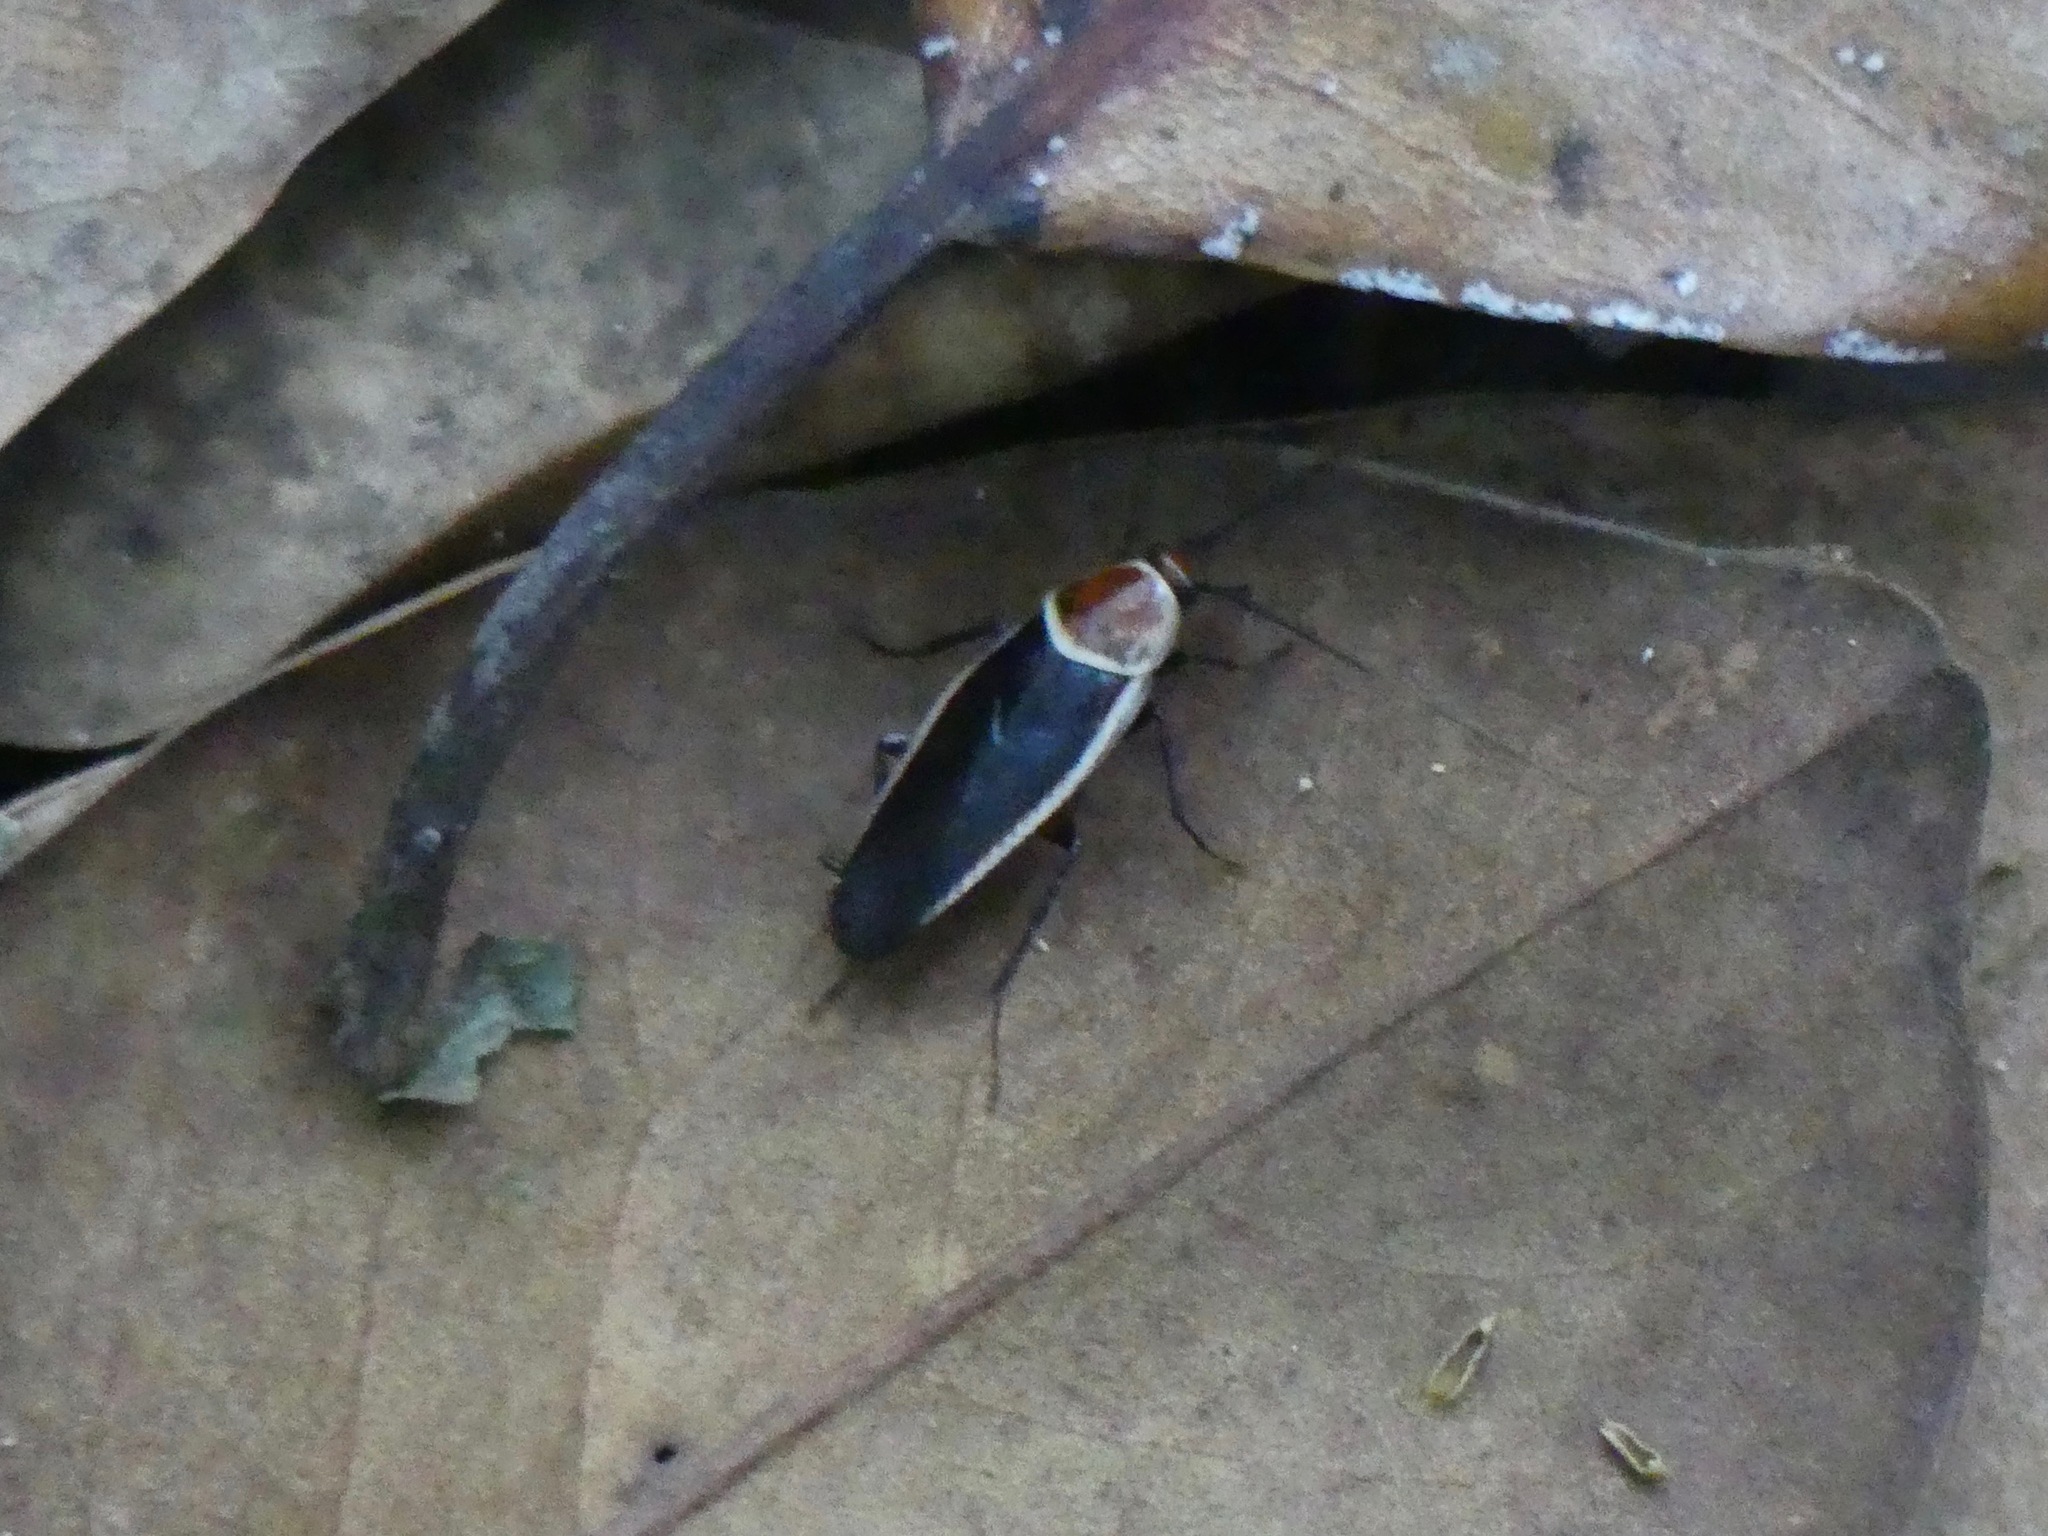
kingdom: Animalia
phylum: Arthropoda
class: Insecta
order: Blattodea
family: Ectobiidae
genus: Pseudomops
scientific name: Pseudomops septentrionalis
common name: Pale-bordered field cockroach
